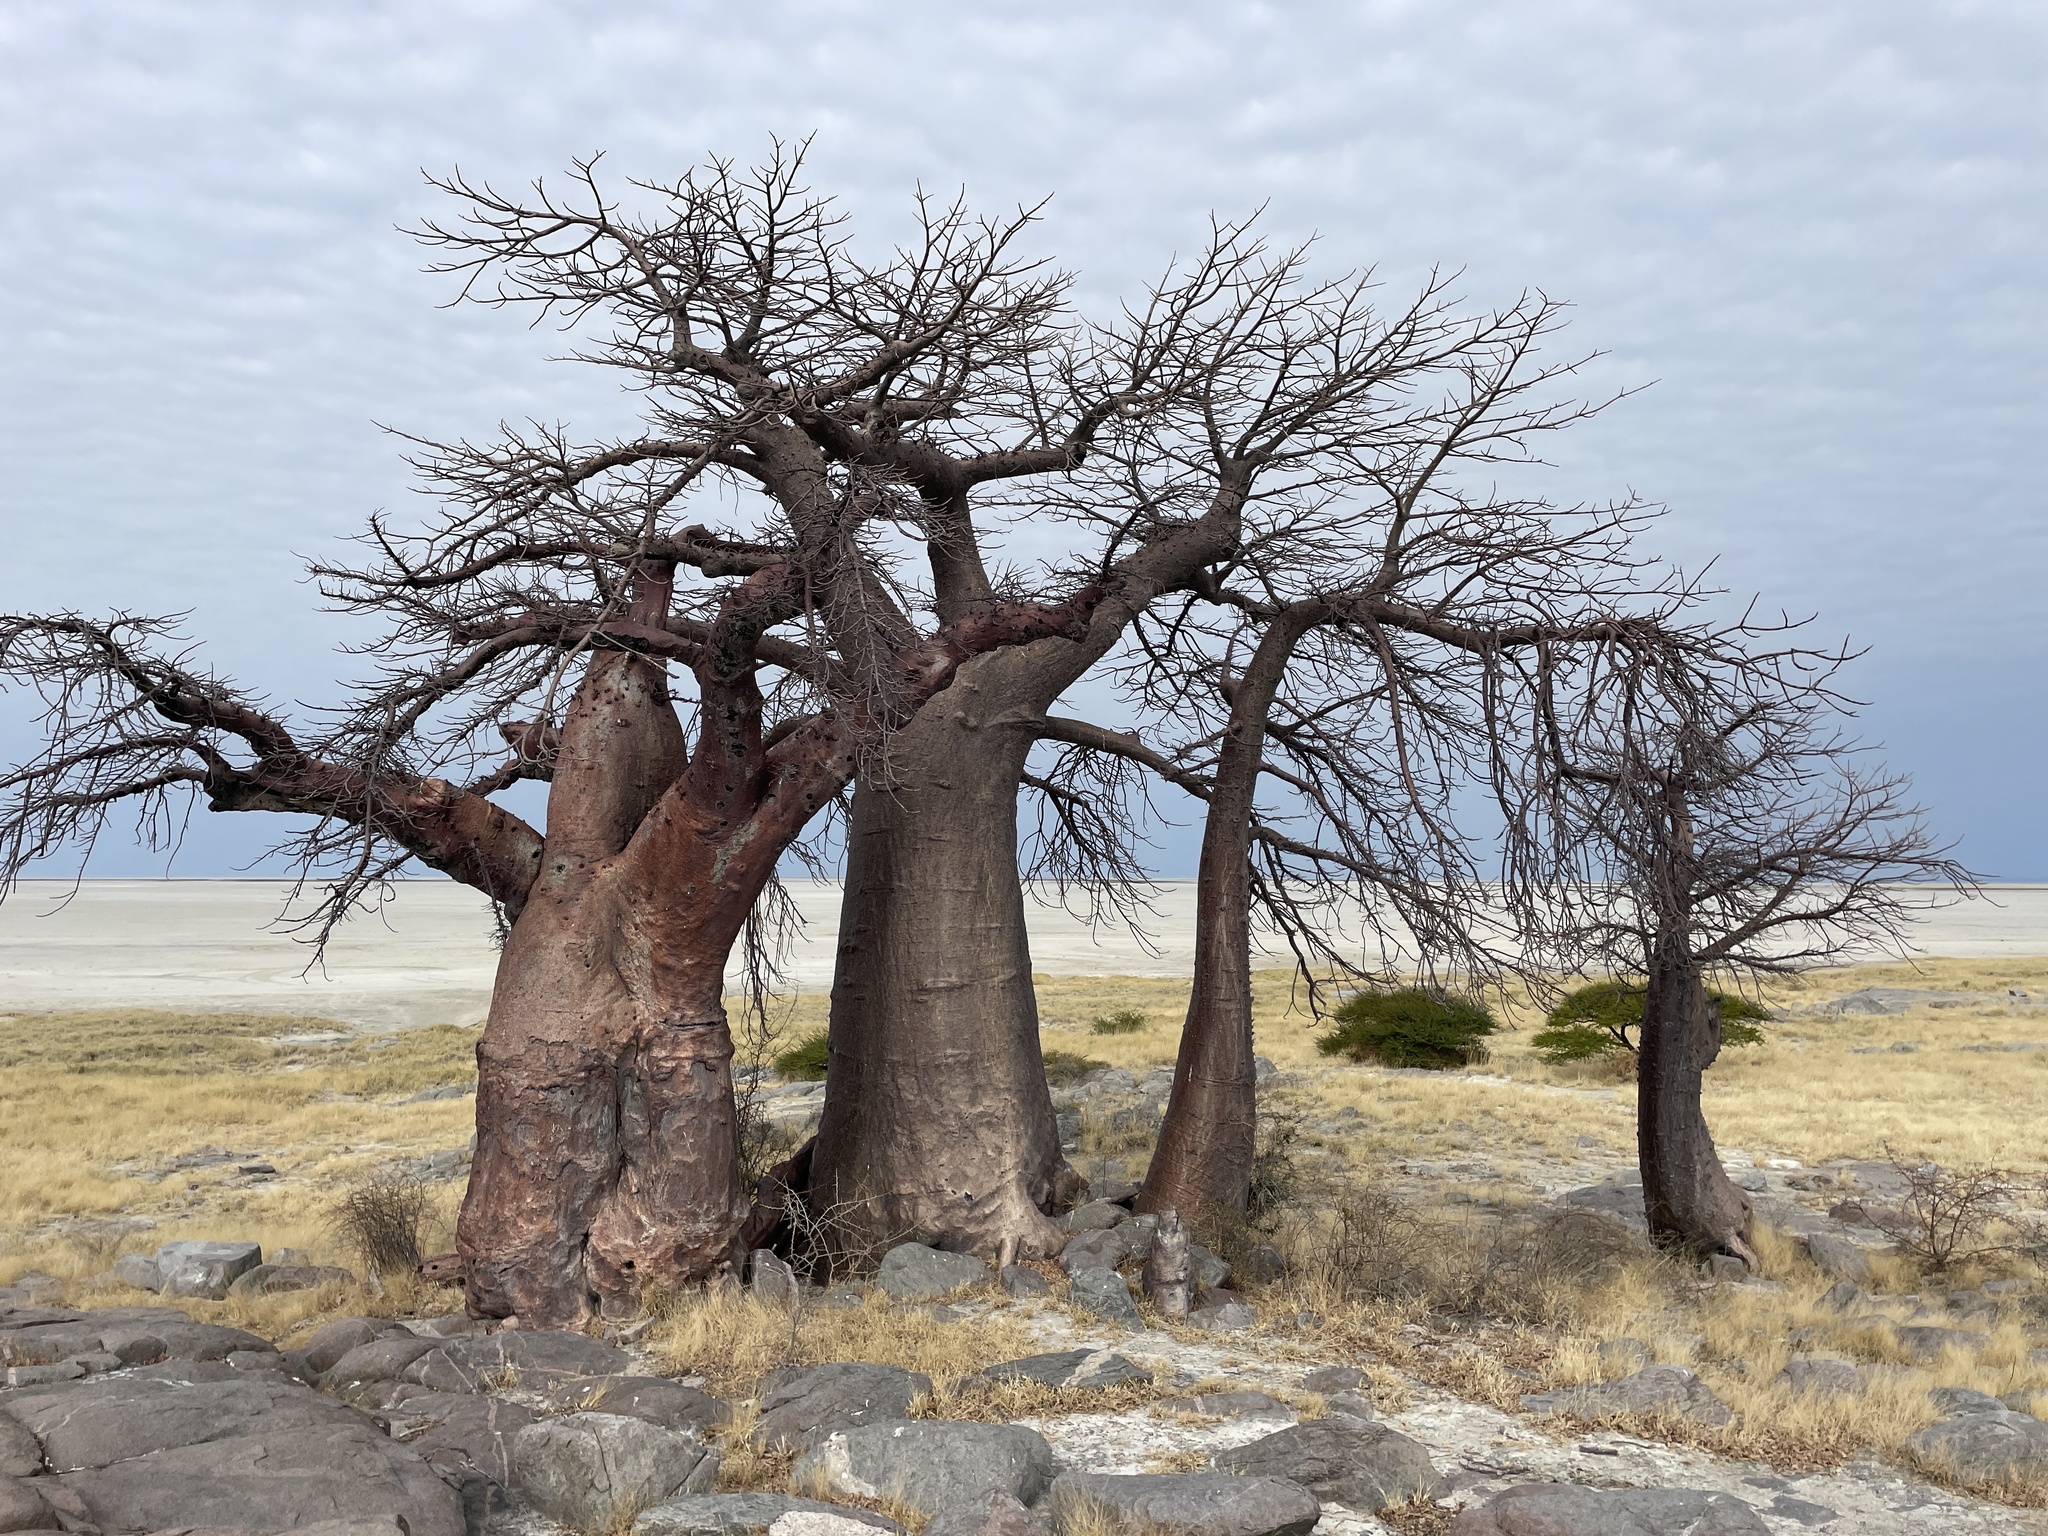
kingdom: Plantae
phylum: Tracheophyta
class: Magnoliopsida
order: Malvales
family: Malvaceae
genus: Adansonia
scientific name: Adansonia digitata
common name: Dead-rat-tree
